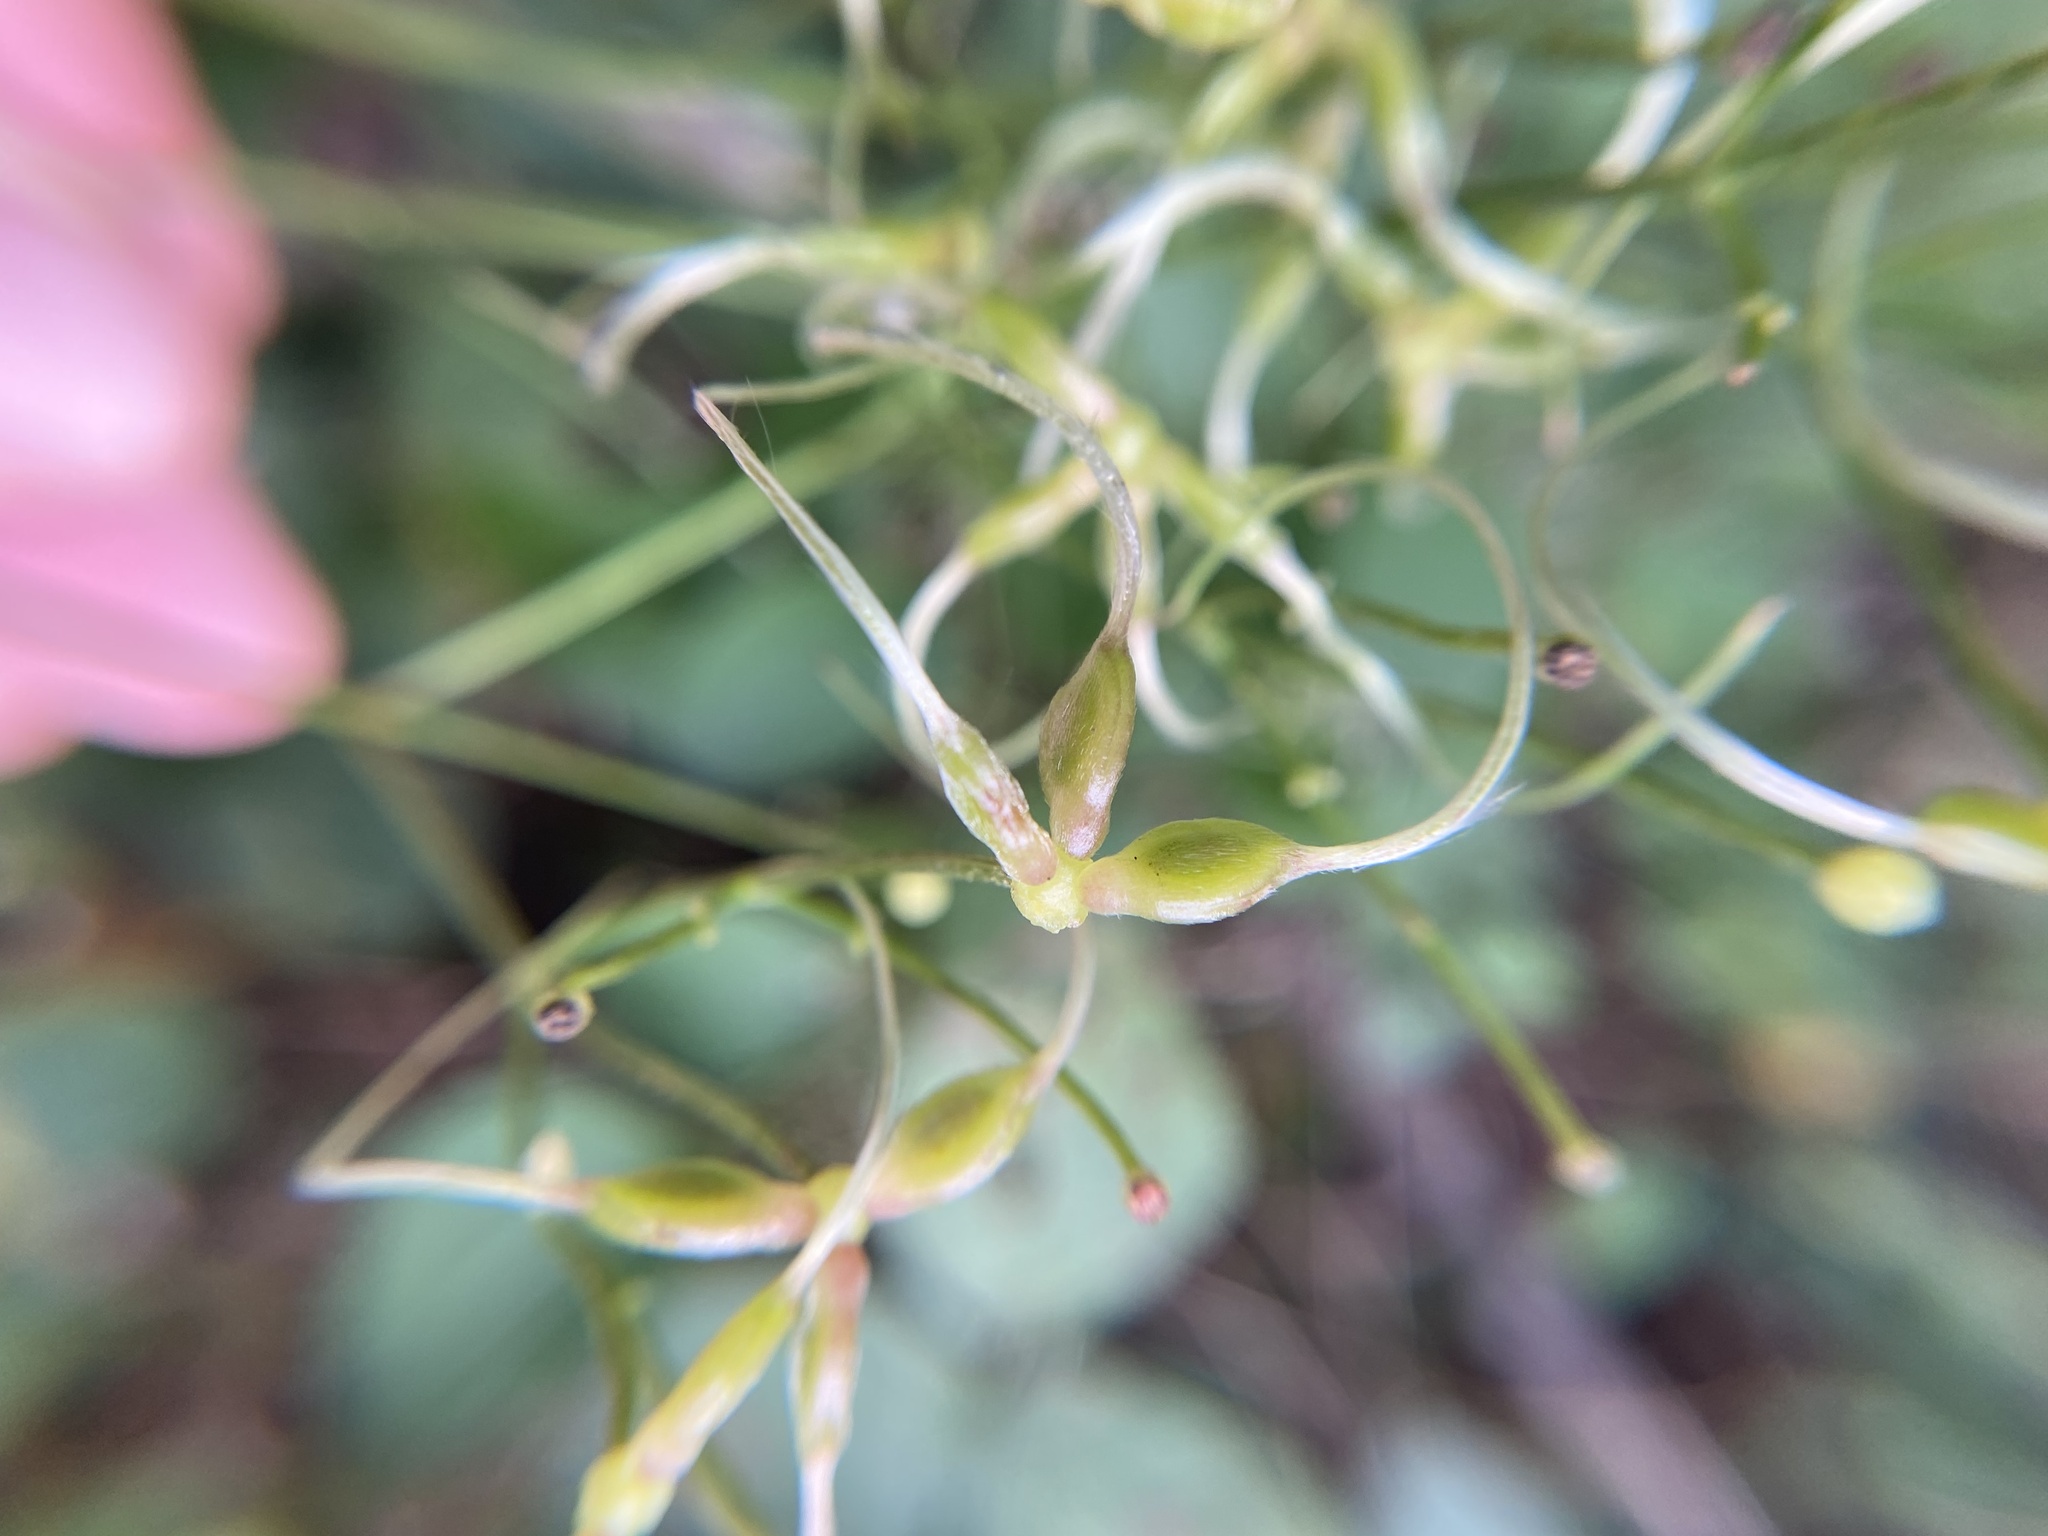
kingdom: Plantae
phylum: Tracheophyta
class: Magnoliopsida
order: Ranunculales
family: Ranunculaceae
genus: Clematis
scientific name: Clematis terniflora
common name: Sweet autumn clematis
